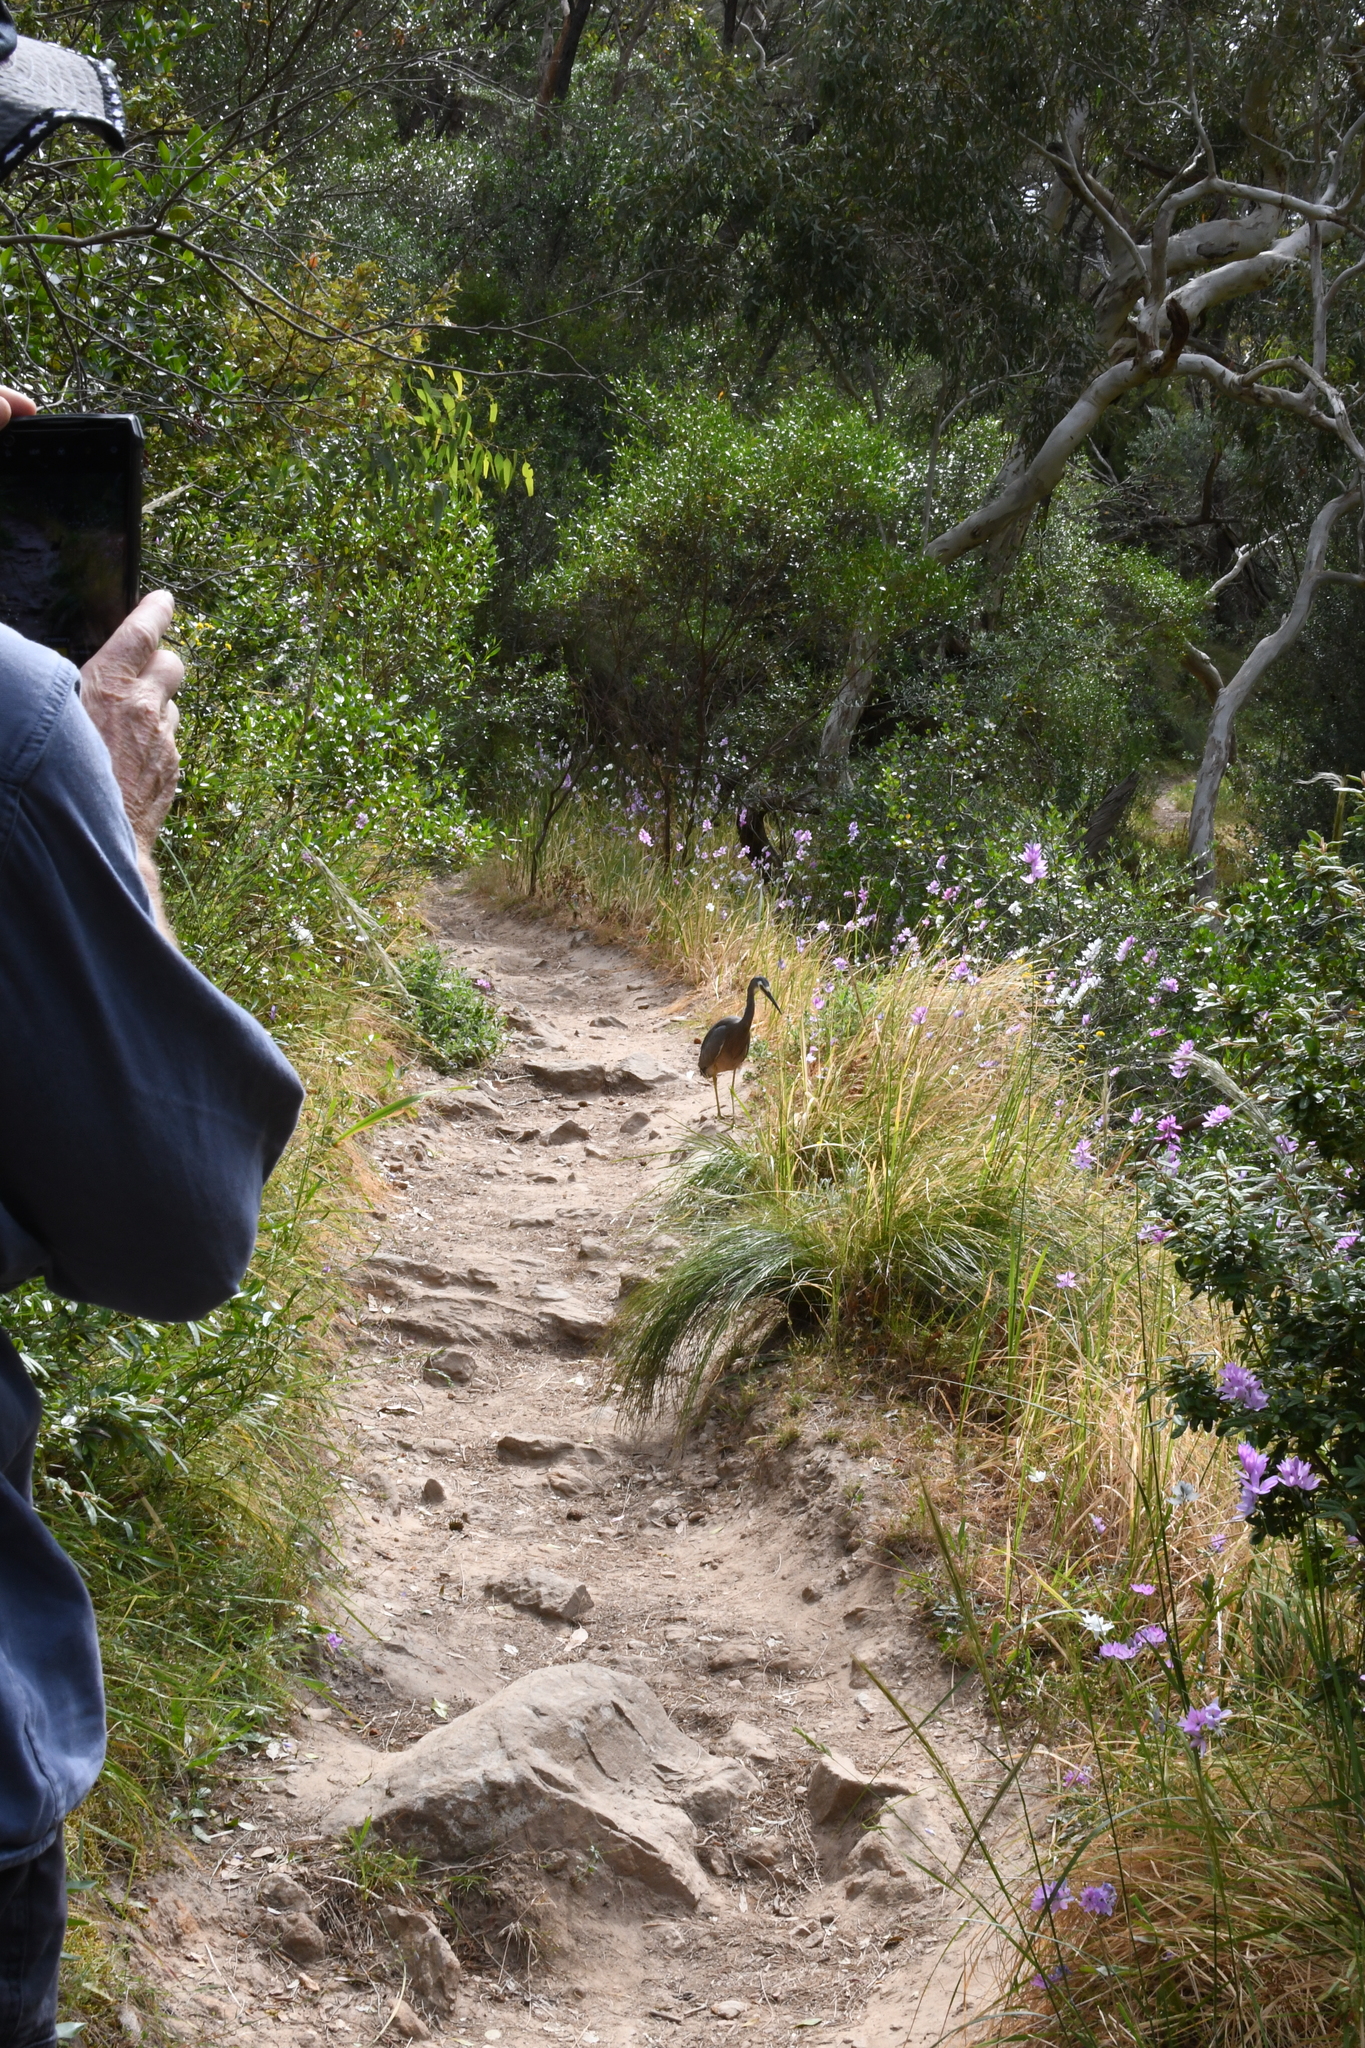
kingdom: Animalia
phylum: Chordata
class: Aves
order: Pelecaniformes
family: Ardeidae
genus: Egretta
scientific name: Egretta novaehollandiae
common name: White-faced heron
